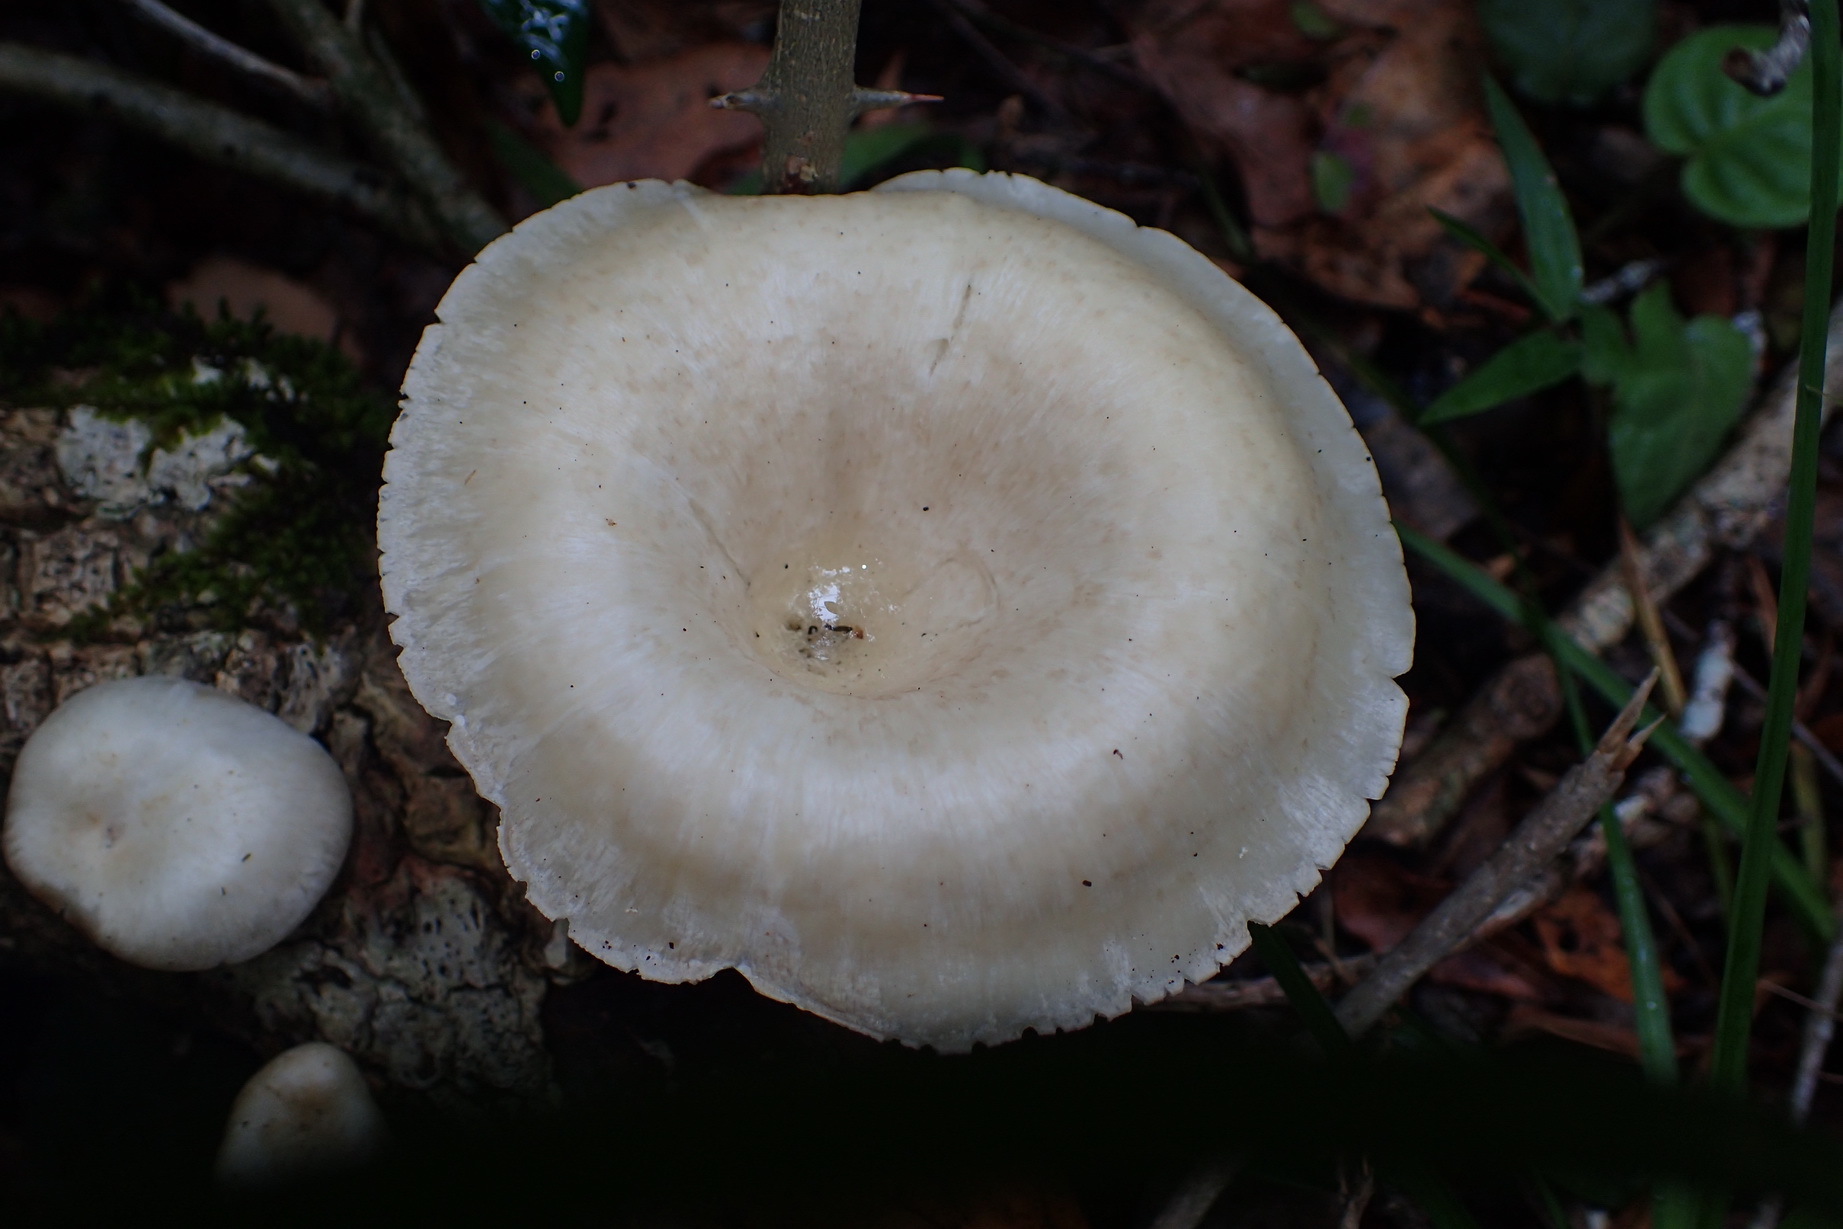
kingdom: Fungi
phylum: Basidiomycota
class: Agaricomycetes
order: Polyporales
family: Polyporaceae
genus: Lentinus
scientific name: Lentinus sajor-caju
